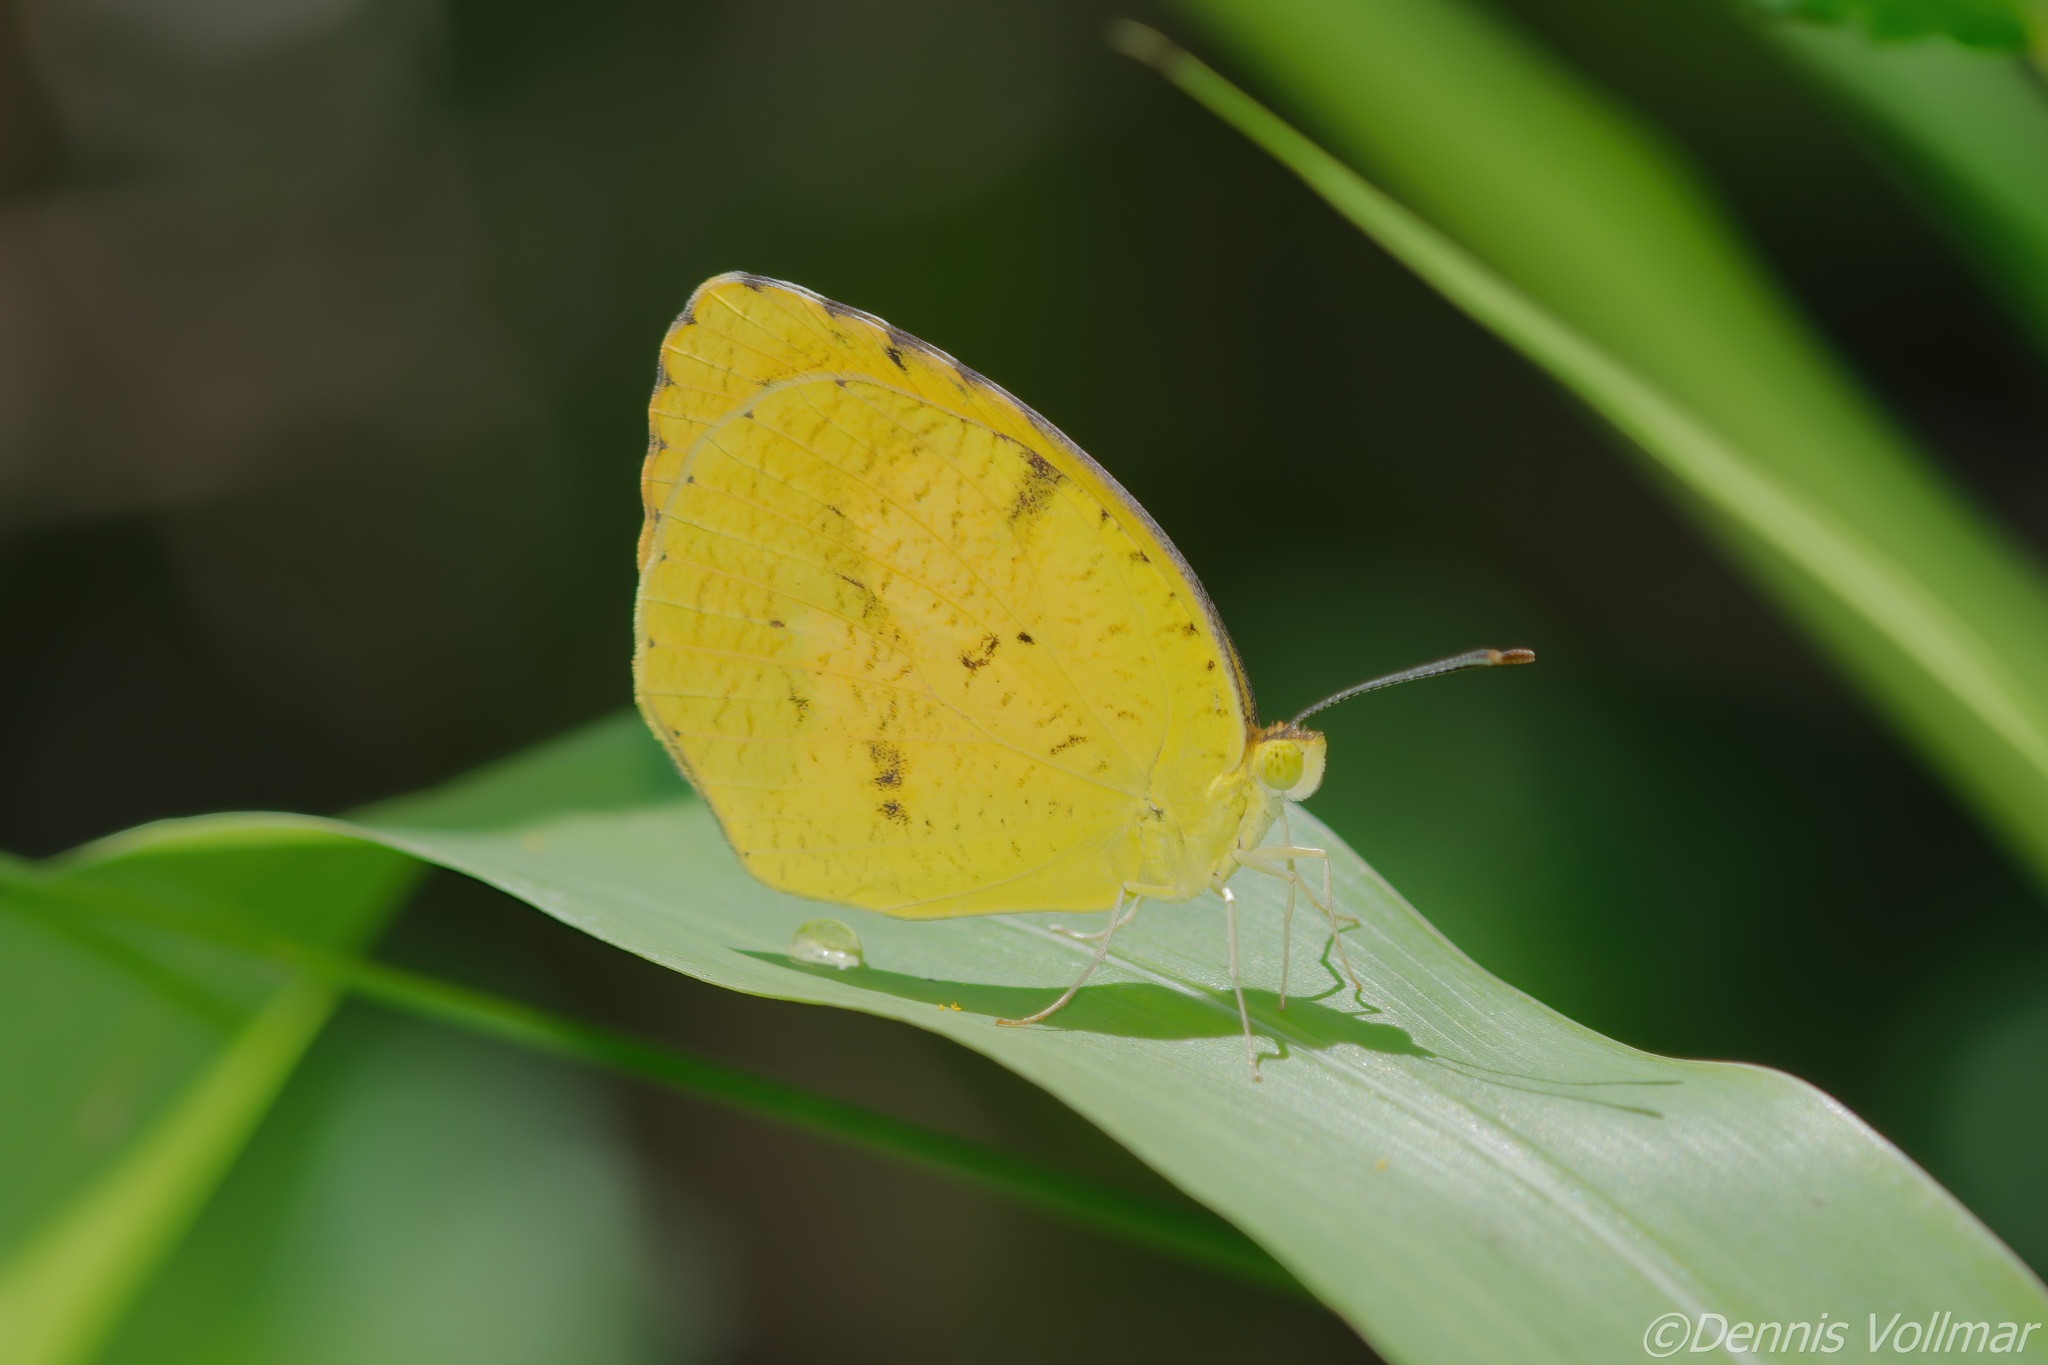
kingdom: Animalia
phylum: Arthropoda
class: Insecta
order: Lepidoptera
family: Pieridae
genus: Abaeis
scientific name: Abaeis nicippe
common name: Sleepy orange
